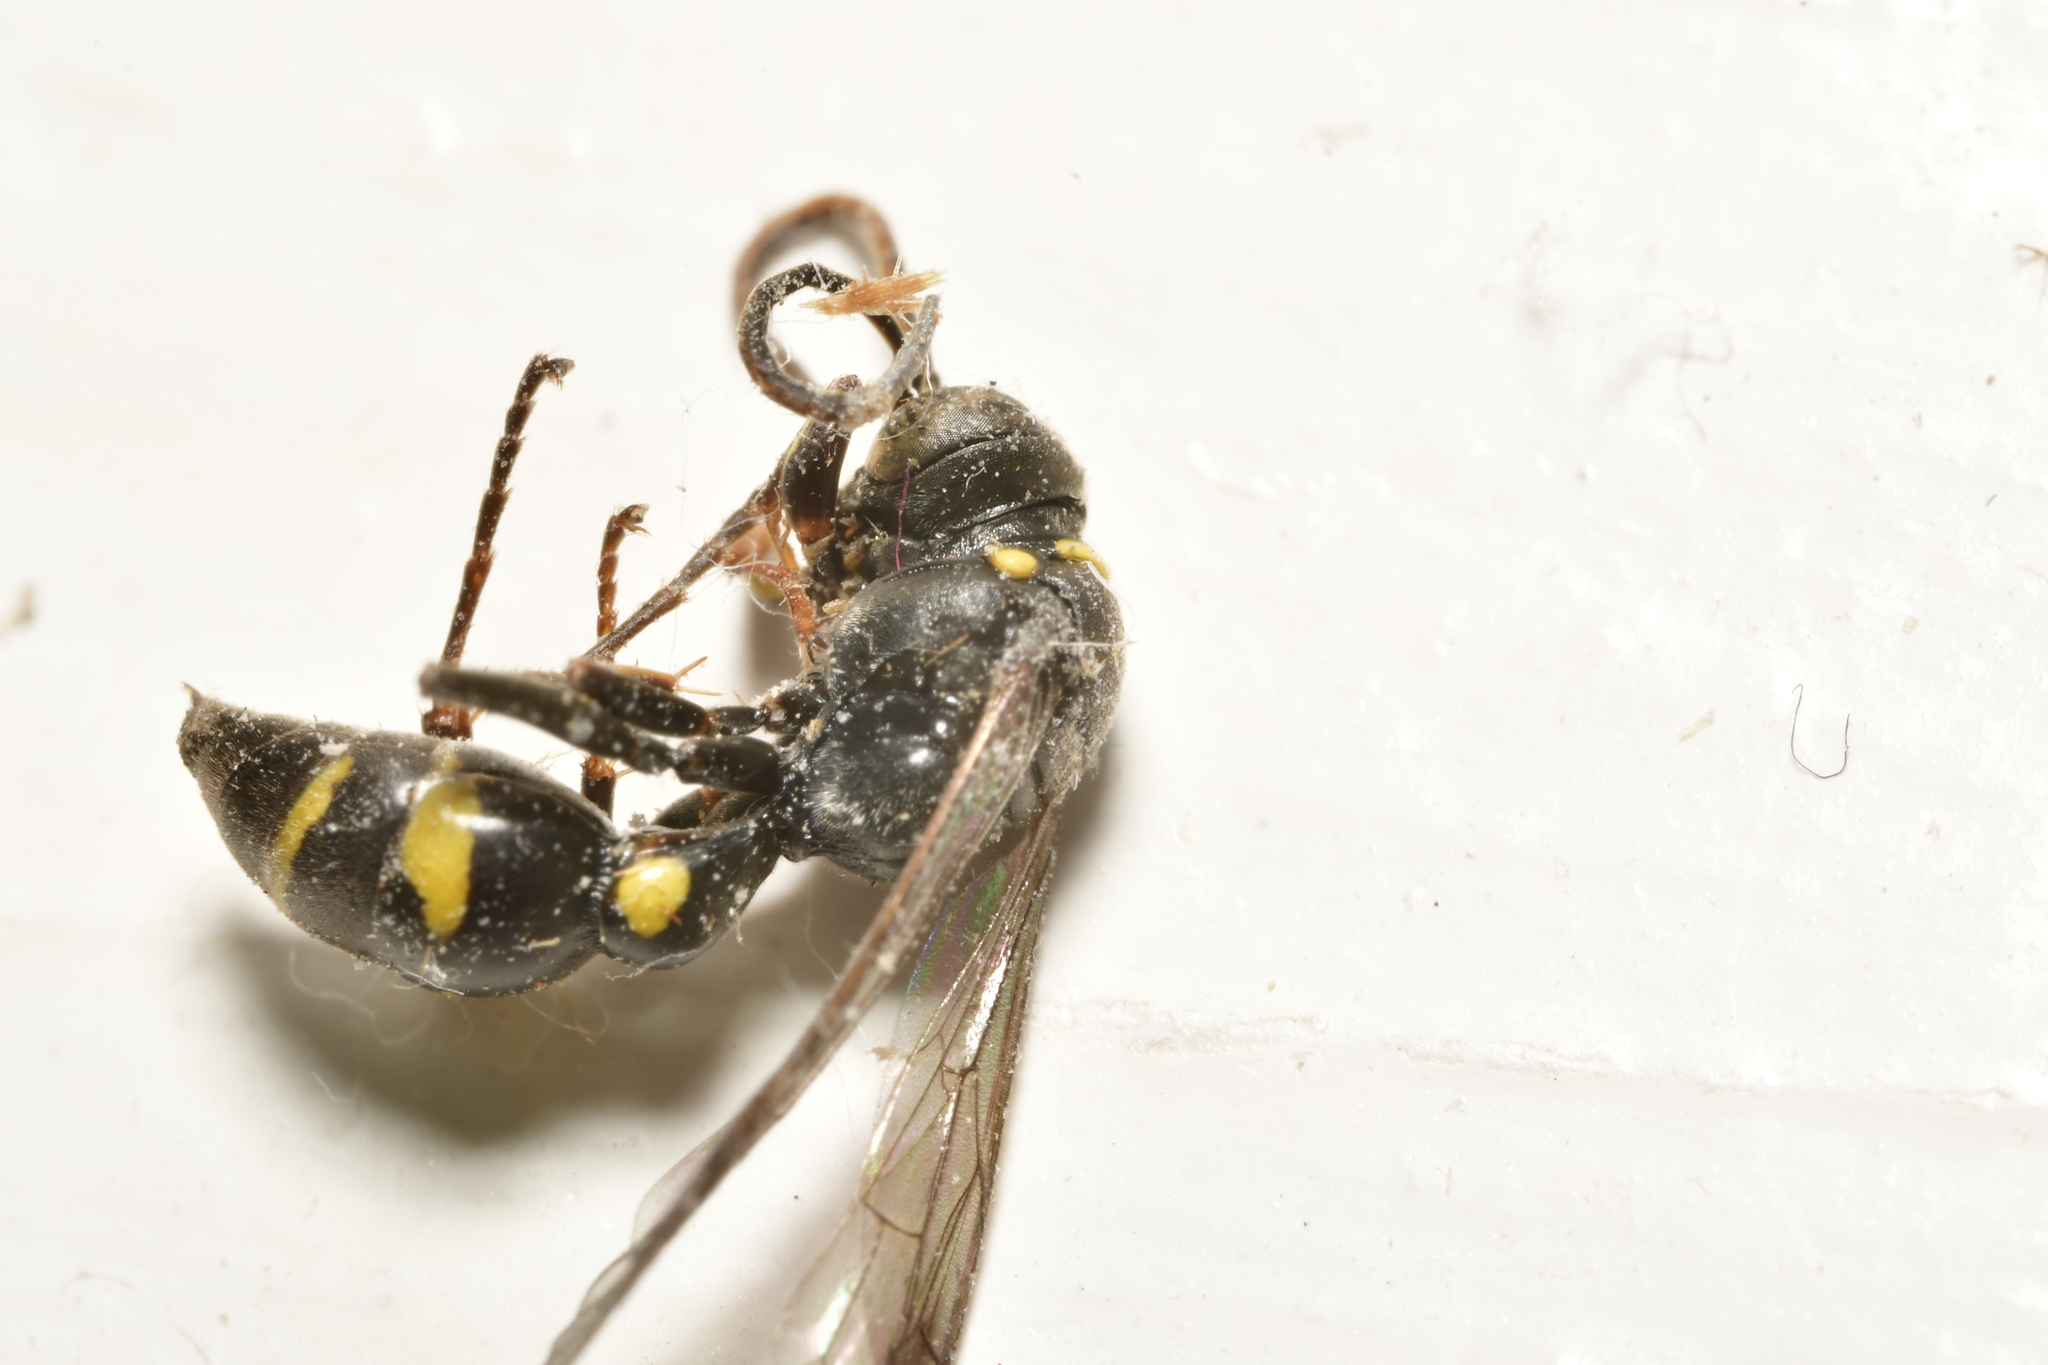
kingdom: Animalia
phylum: Arthropoda
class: Insecta
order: Hymenoptera
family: Crabronidae
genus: Lestiphorus
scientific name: Lestiphorus bicinctus
